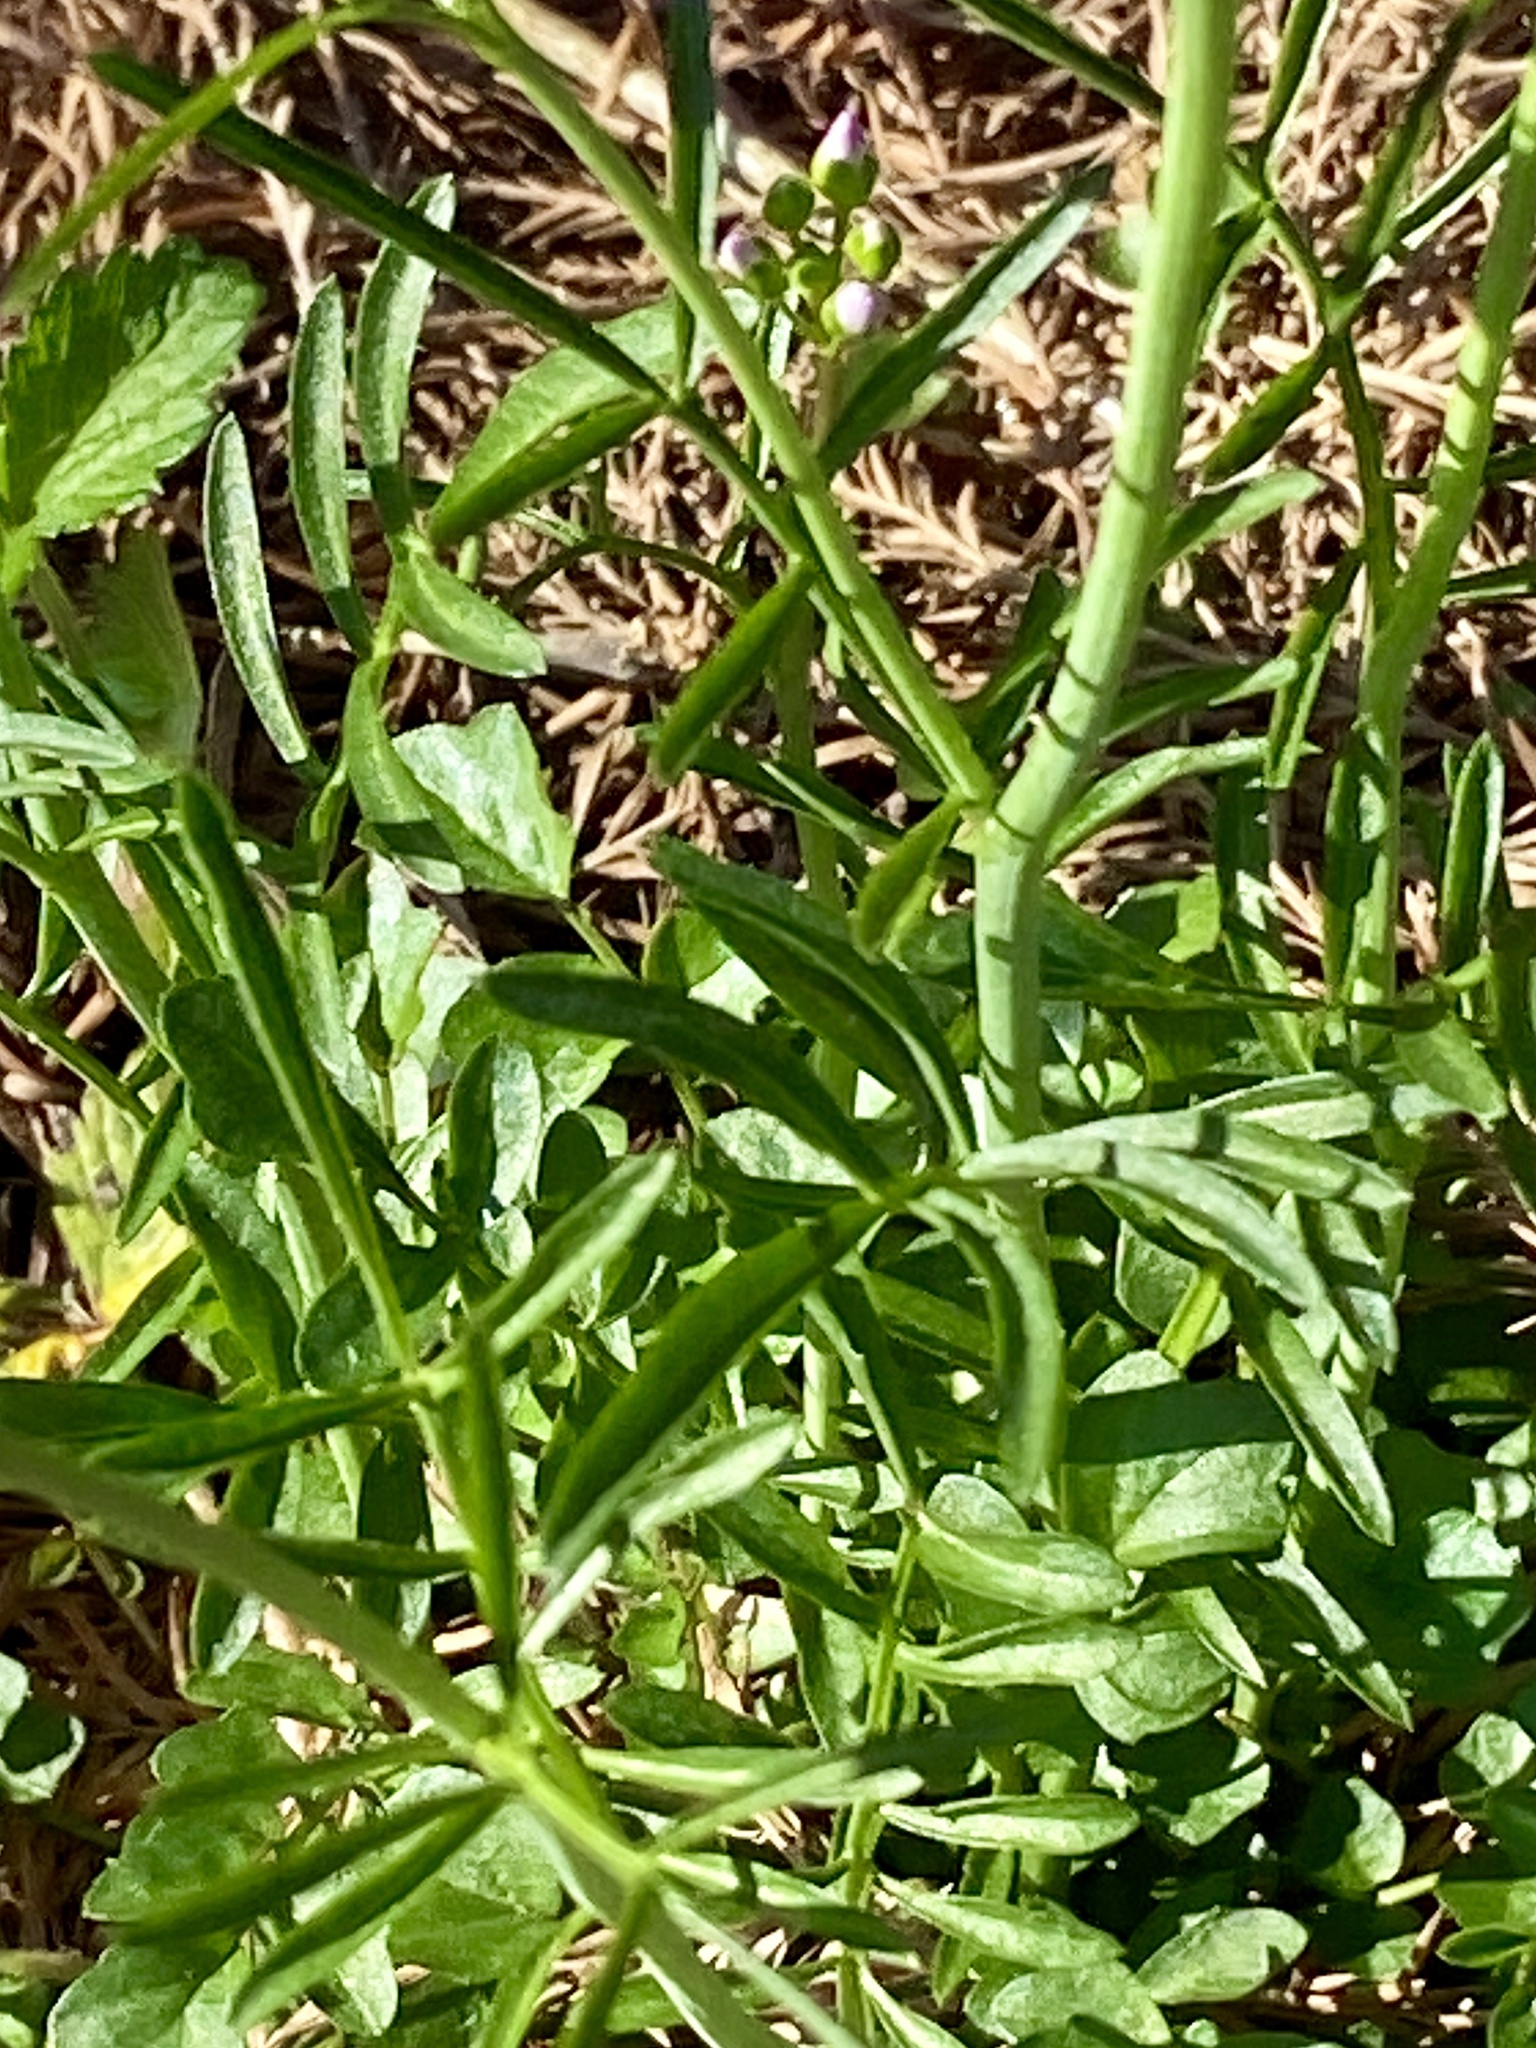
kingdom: Plantae
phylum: Tracheophyta
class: Magnoliopsida
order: Brassicales
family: Brassicaceae
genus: Cardamine
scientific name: Cardamine pratensis
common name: Cuckoo flower
